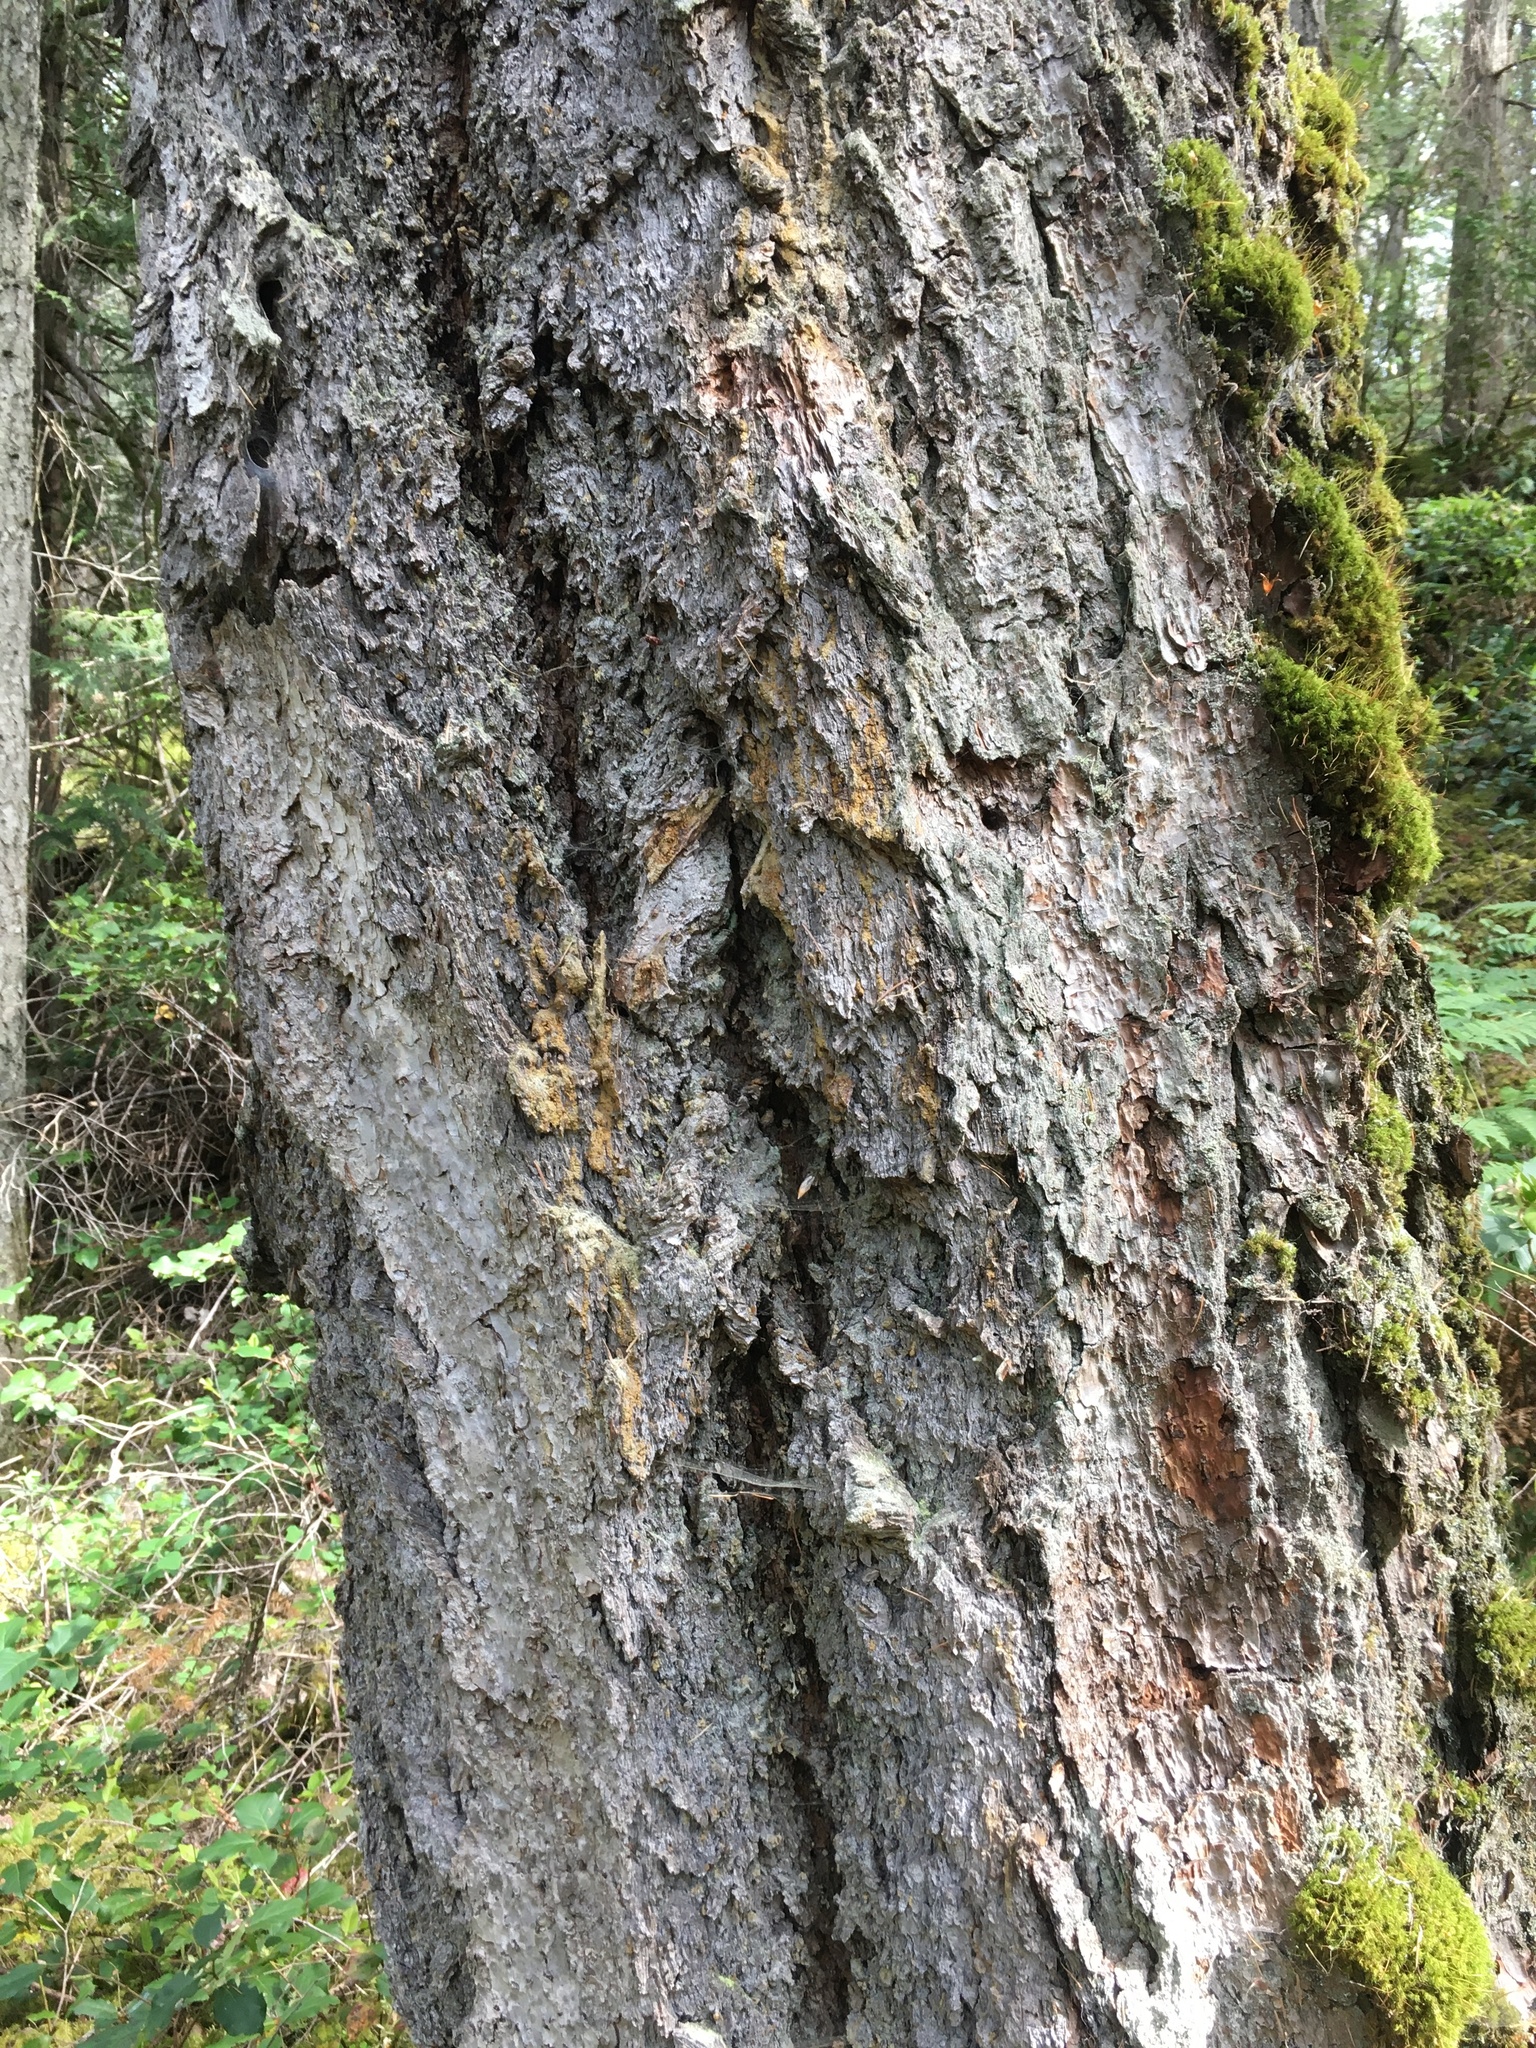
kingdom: Plantae
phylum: Tracheophyta
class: Pinopsida
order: Pinales
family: Pinaceae
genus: Pseudotsuga
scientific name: Pseudotsuga menziesii
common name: Douglas fir
